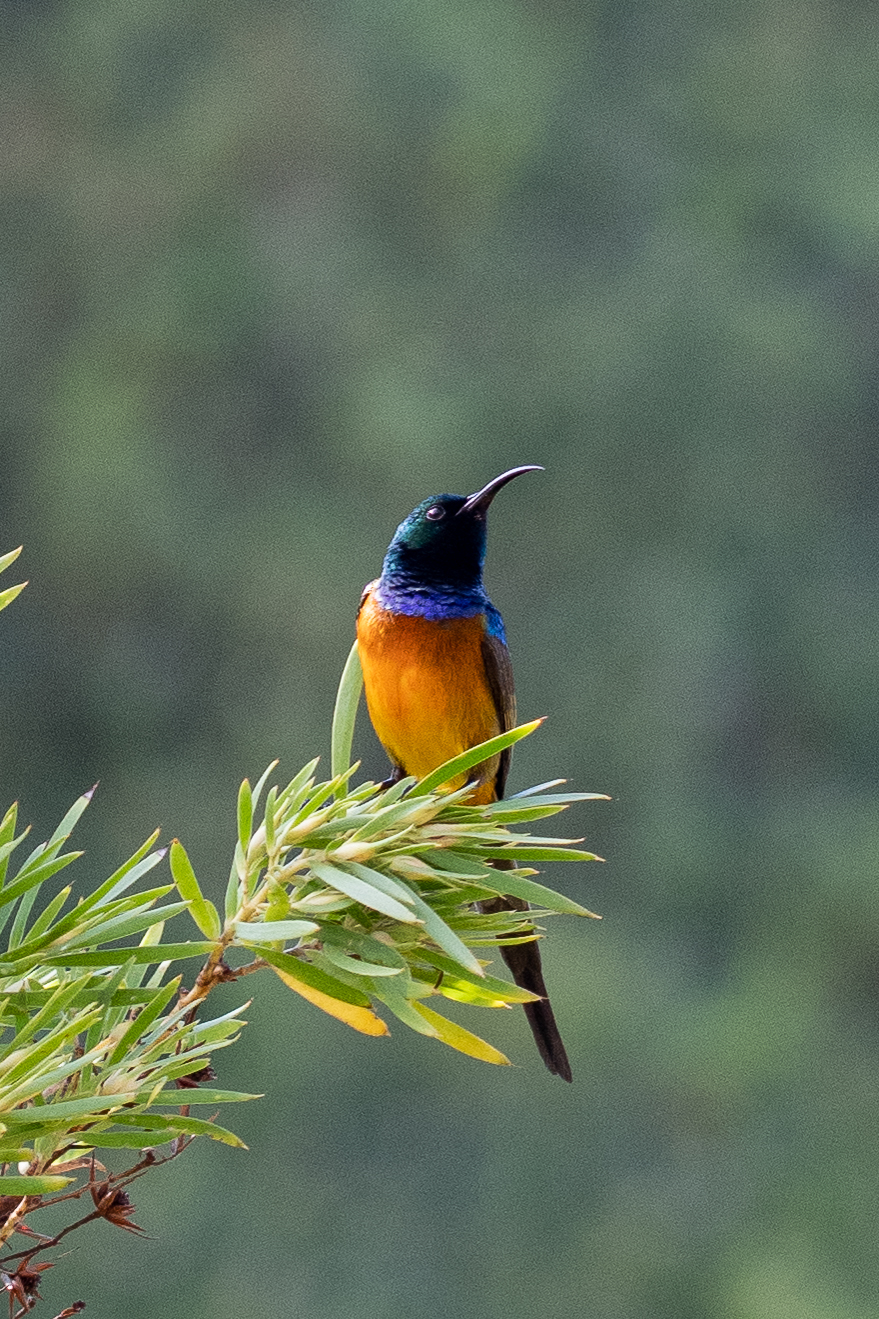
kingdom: Animalia
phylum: Chordata
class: Aves
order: Passeriformes
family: Nectariniidae
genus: Anthobaphes
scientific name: Anthobaphes violacea
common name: Orange-breasted sunbird
